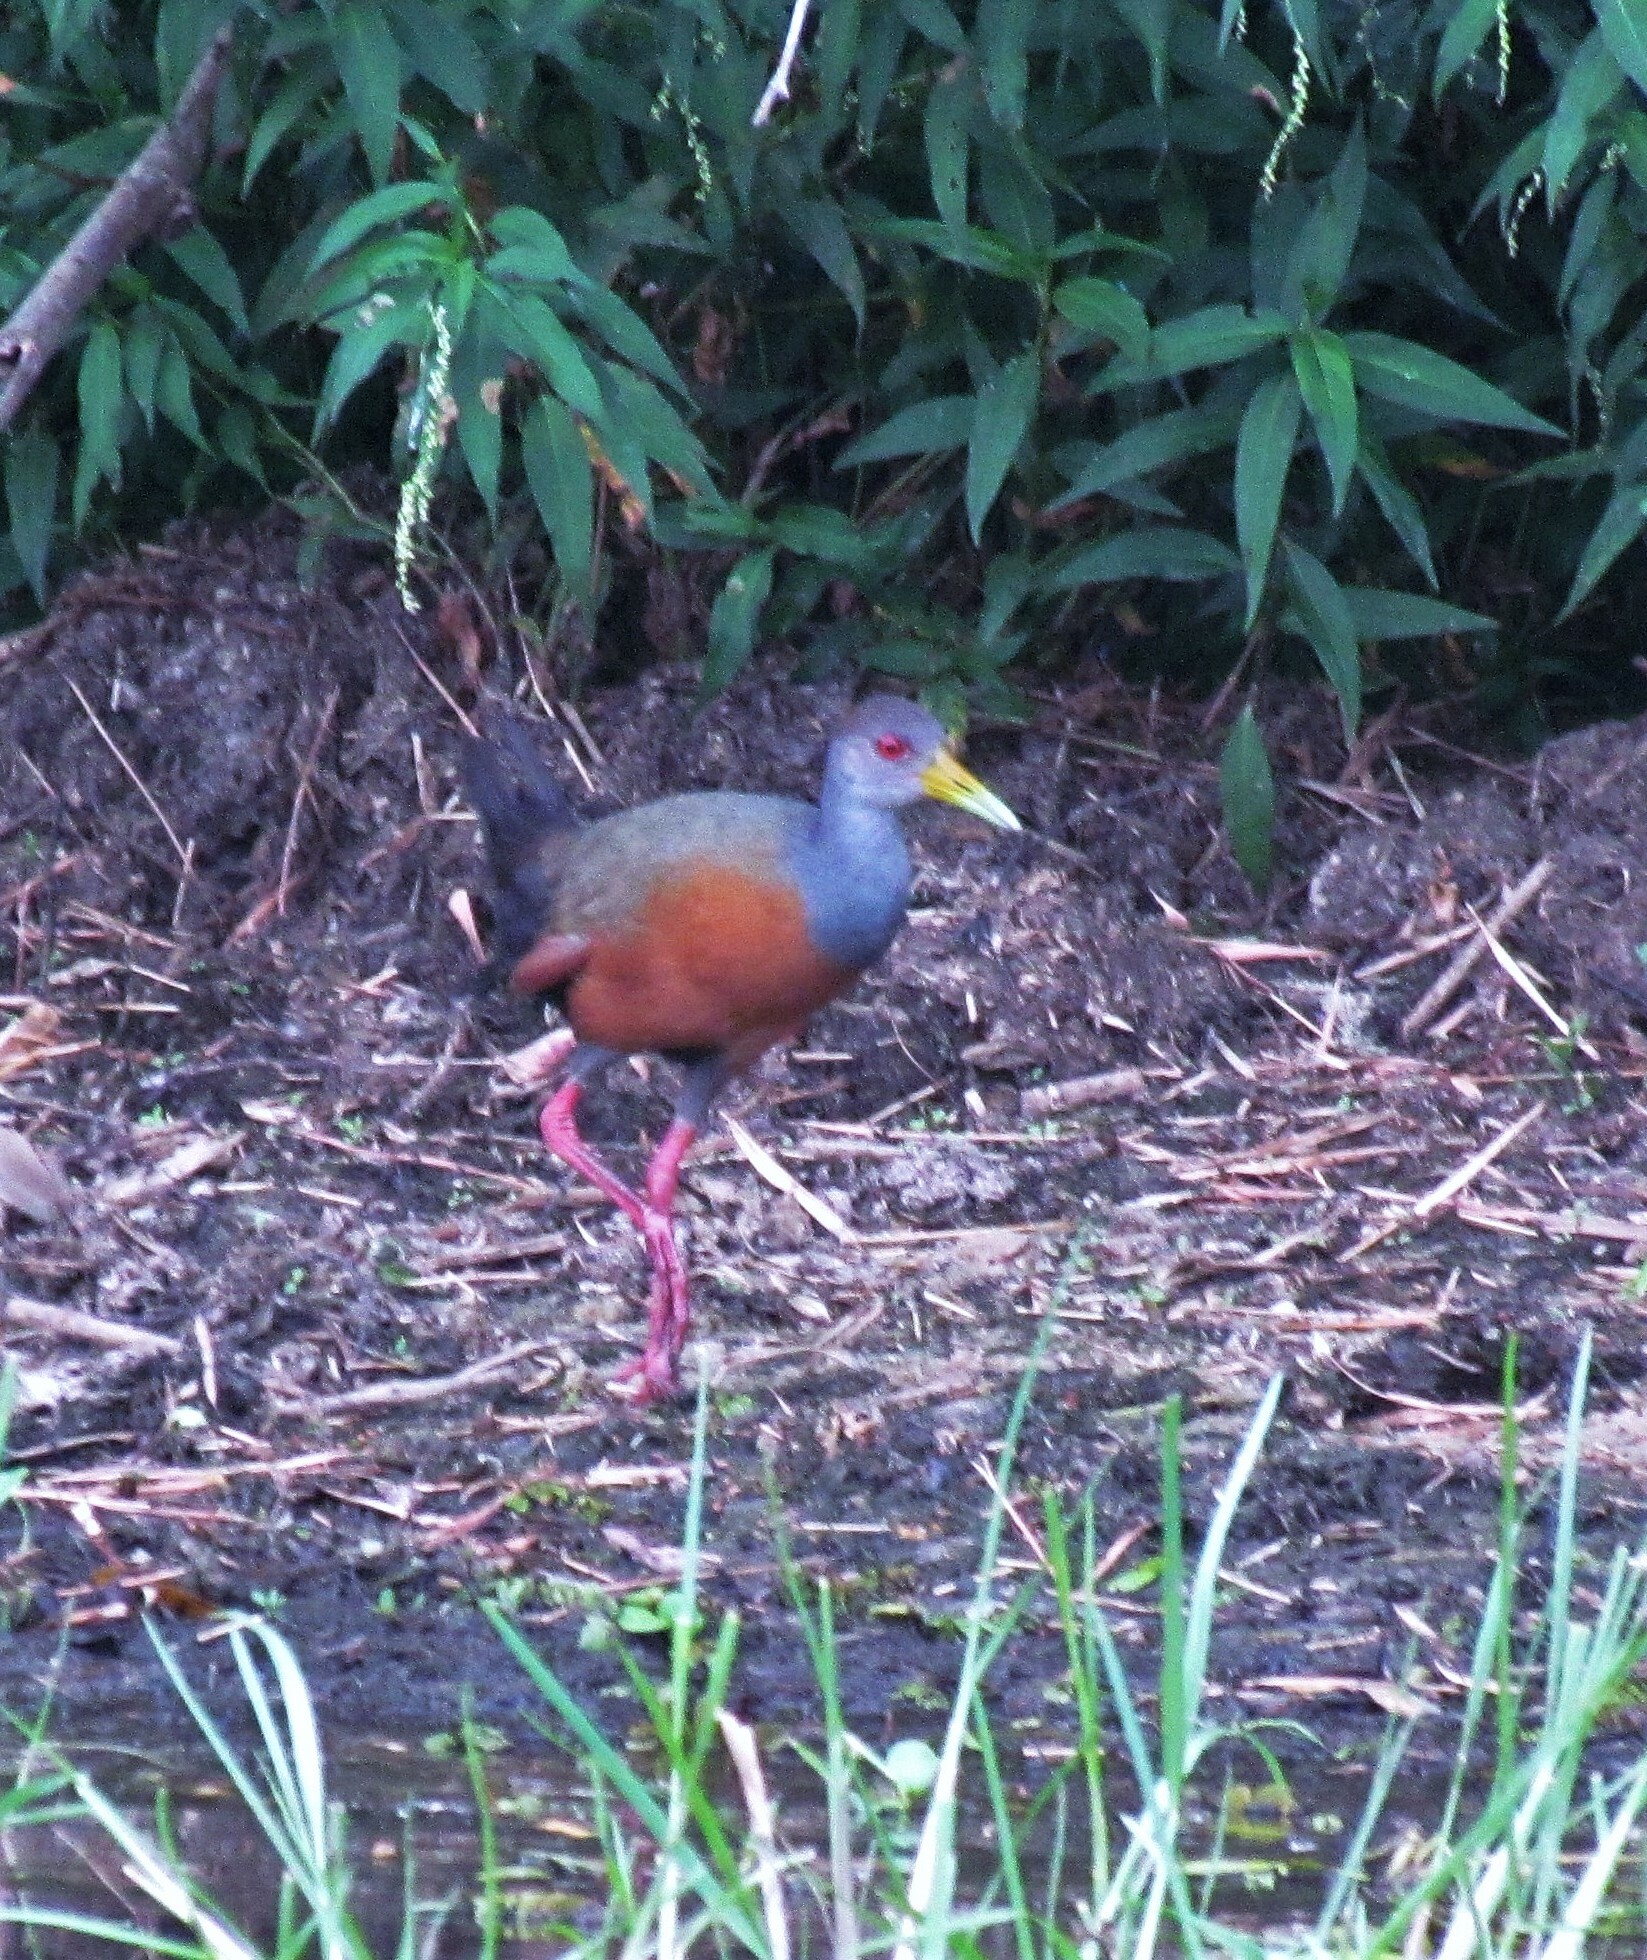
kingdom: Animalia
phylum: Chordata
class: Aves
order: Gruiformes
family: Rallidae
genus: Aramides
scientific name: Aramides cajanea
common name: Gray-necked wood-rail
